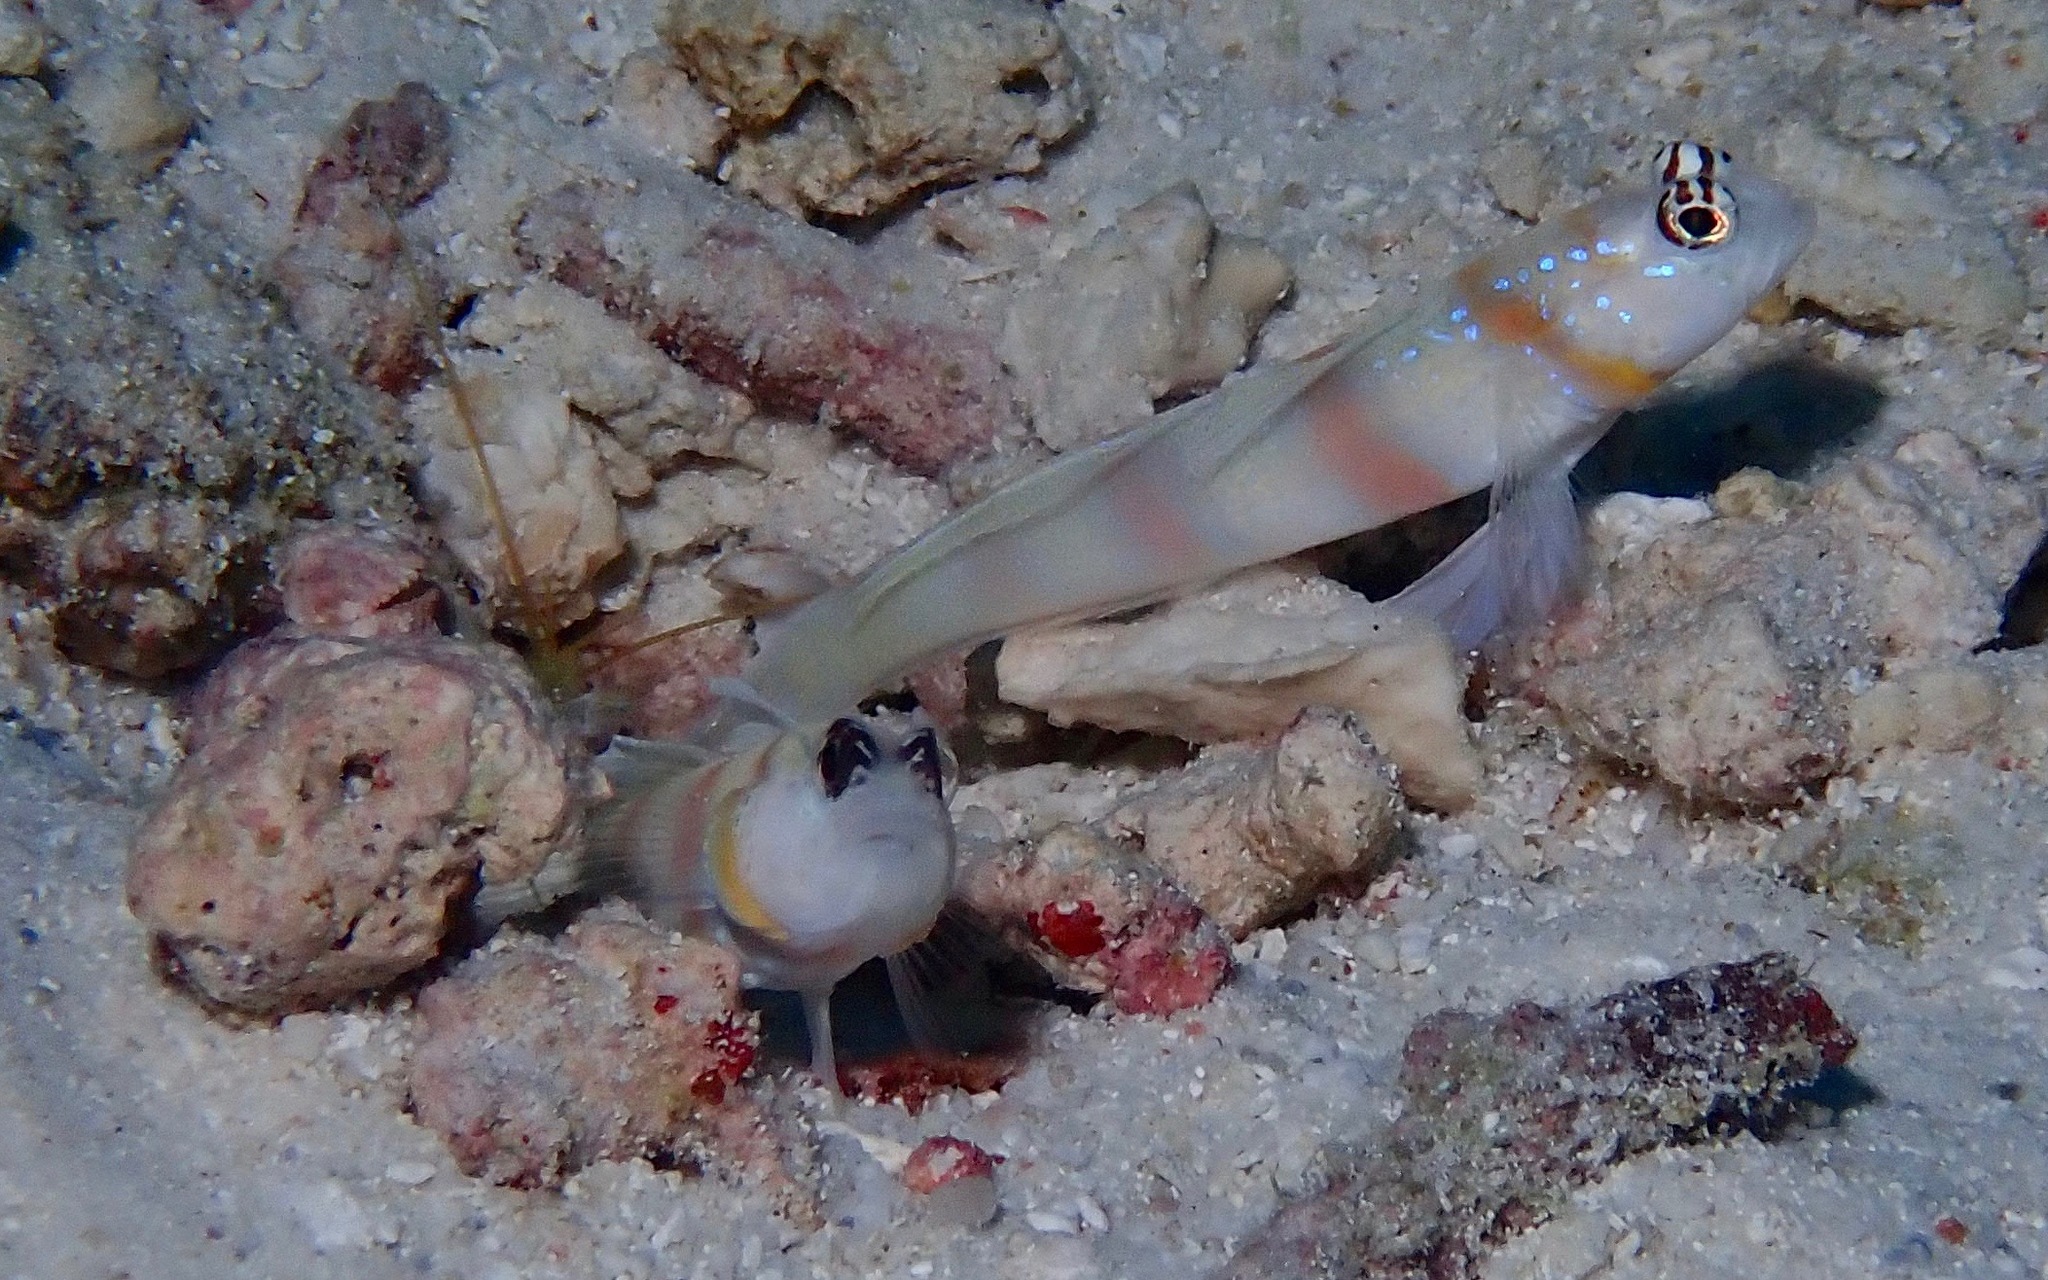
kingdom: Animalia
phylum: Chordata
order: Perciformes
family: Gobiidae
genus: Amblyeleotris
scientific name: Amblyeleotris steinitzi
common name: Steinitz' prawn-goby
